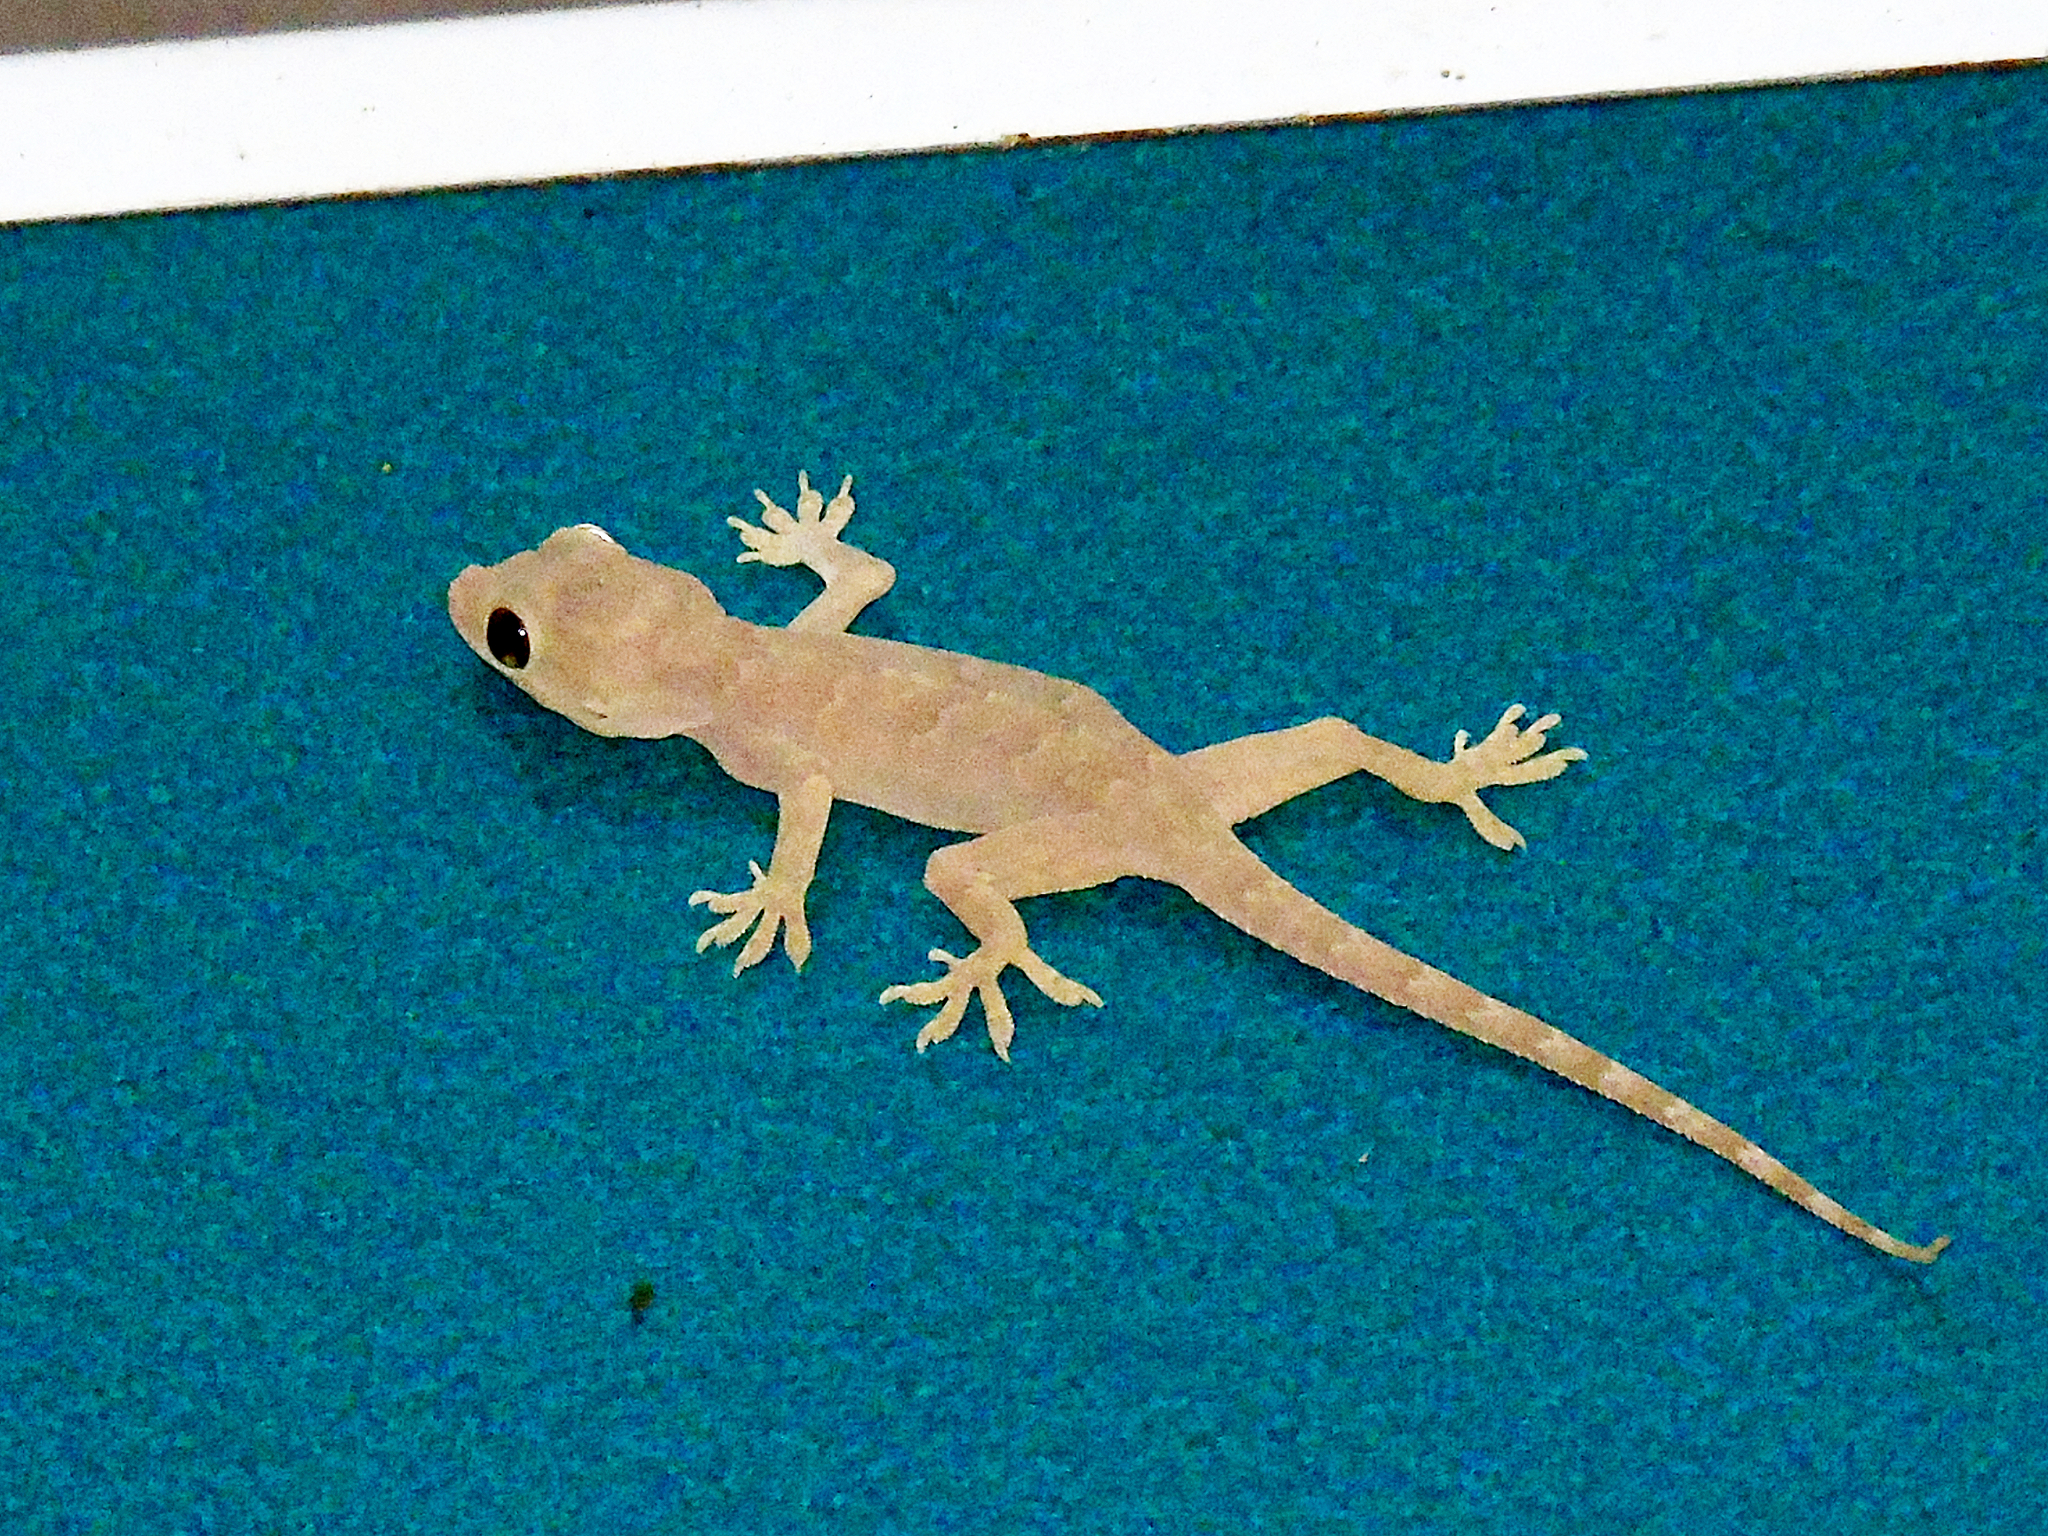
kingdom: Animalia
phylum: Chordata
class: Squamata
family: Gekkonidae
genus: Hemidactylus
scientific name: Hemidactylus flaviviridis
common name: Northern house gecko
